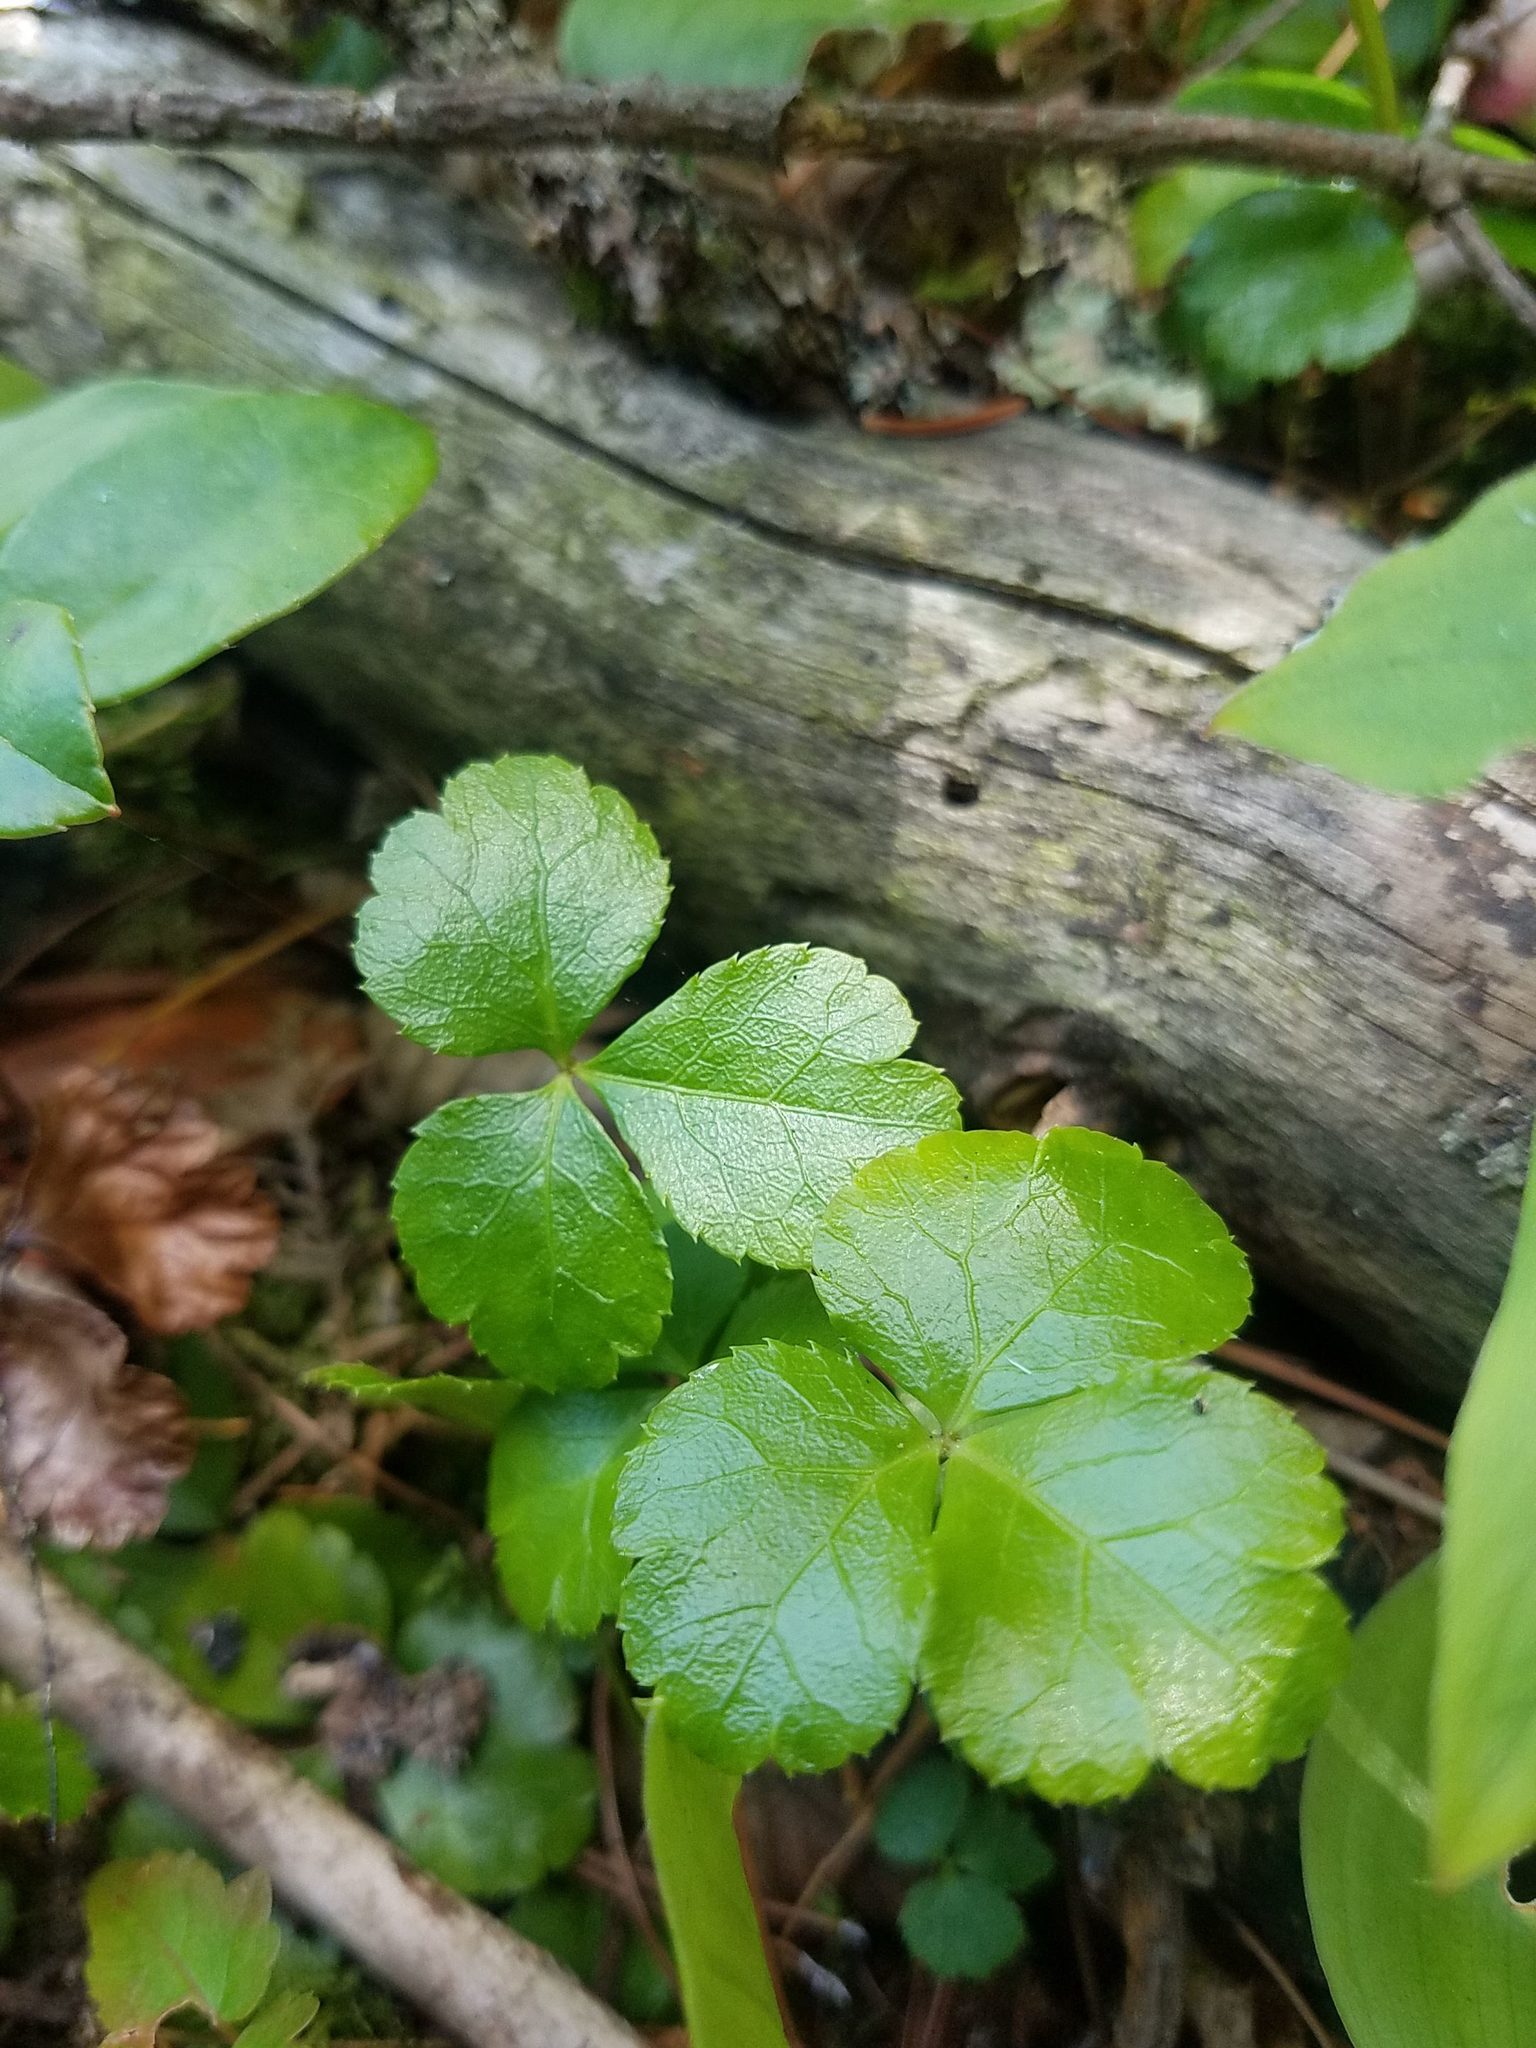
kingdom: Plantae
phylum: Tracheophyta
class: Magnoliopsida
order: Ranunculales
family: Ranunculaceae
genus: Coptis
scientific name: Coptis trifolia
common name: Canker-root
